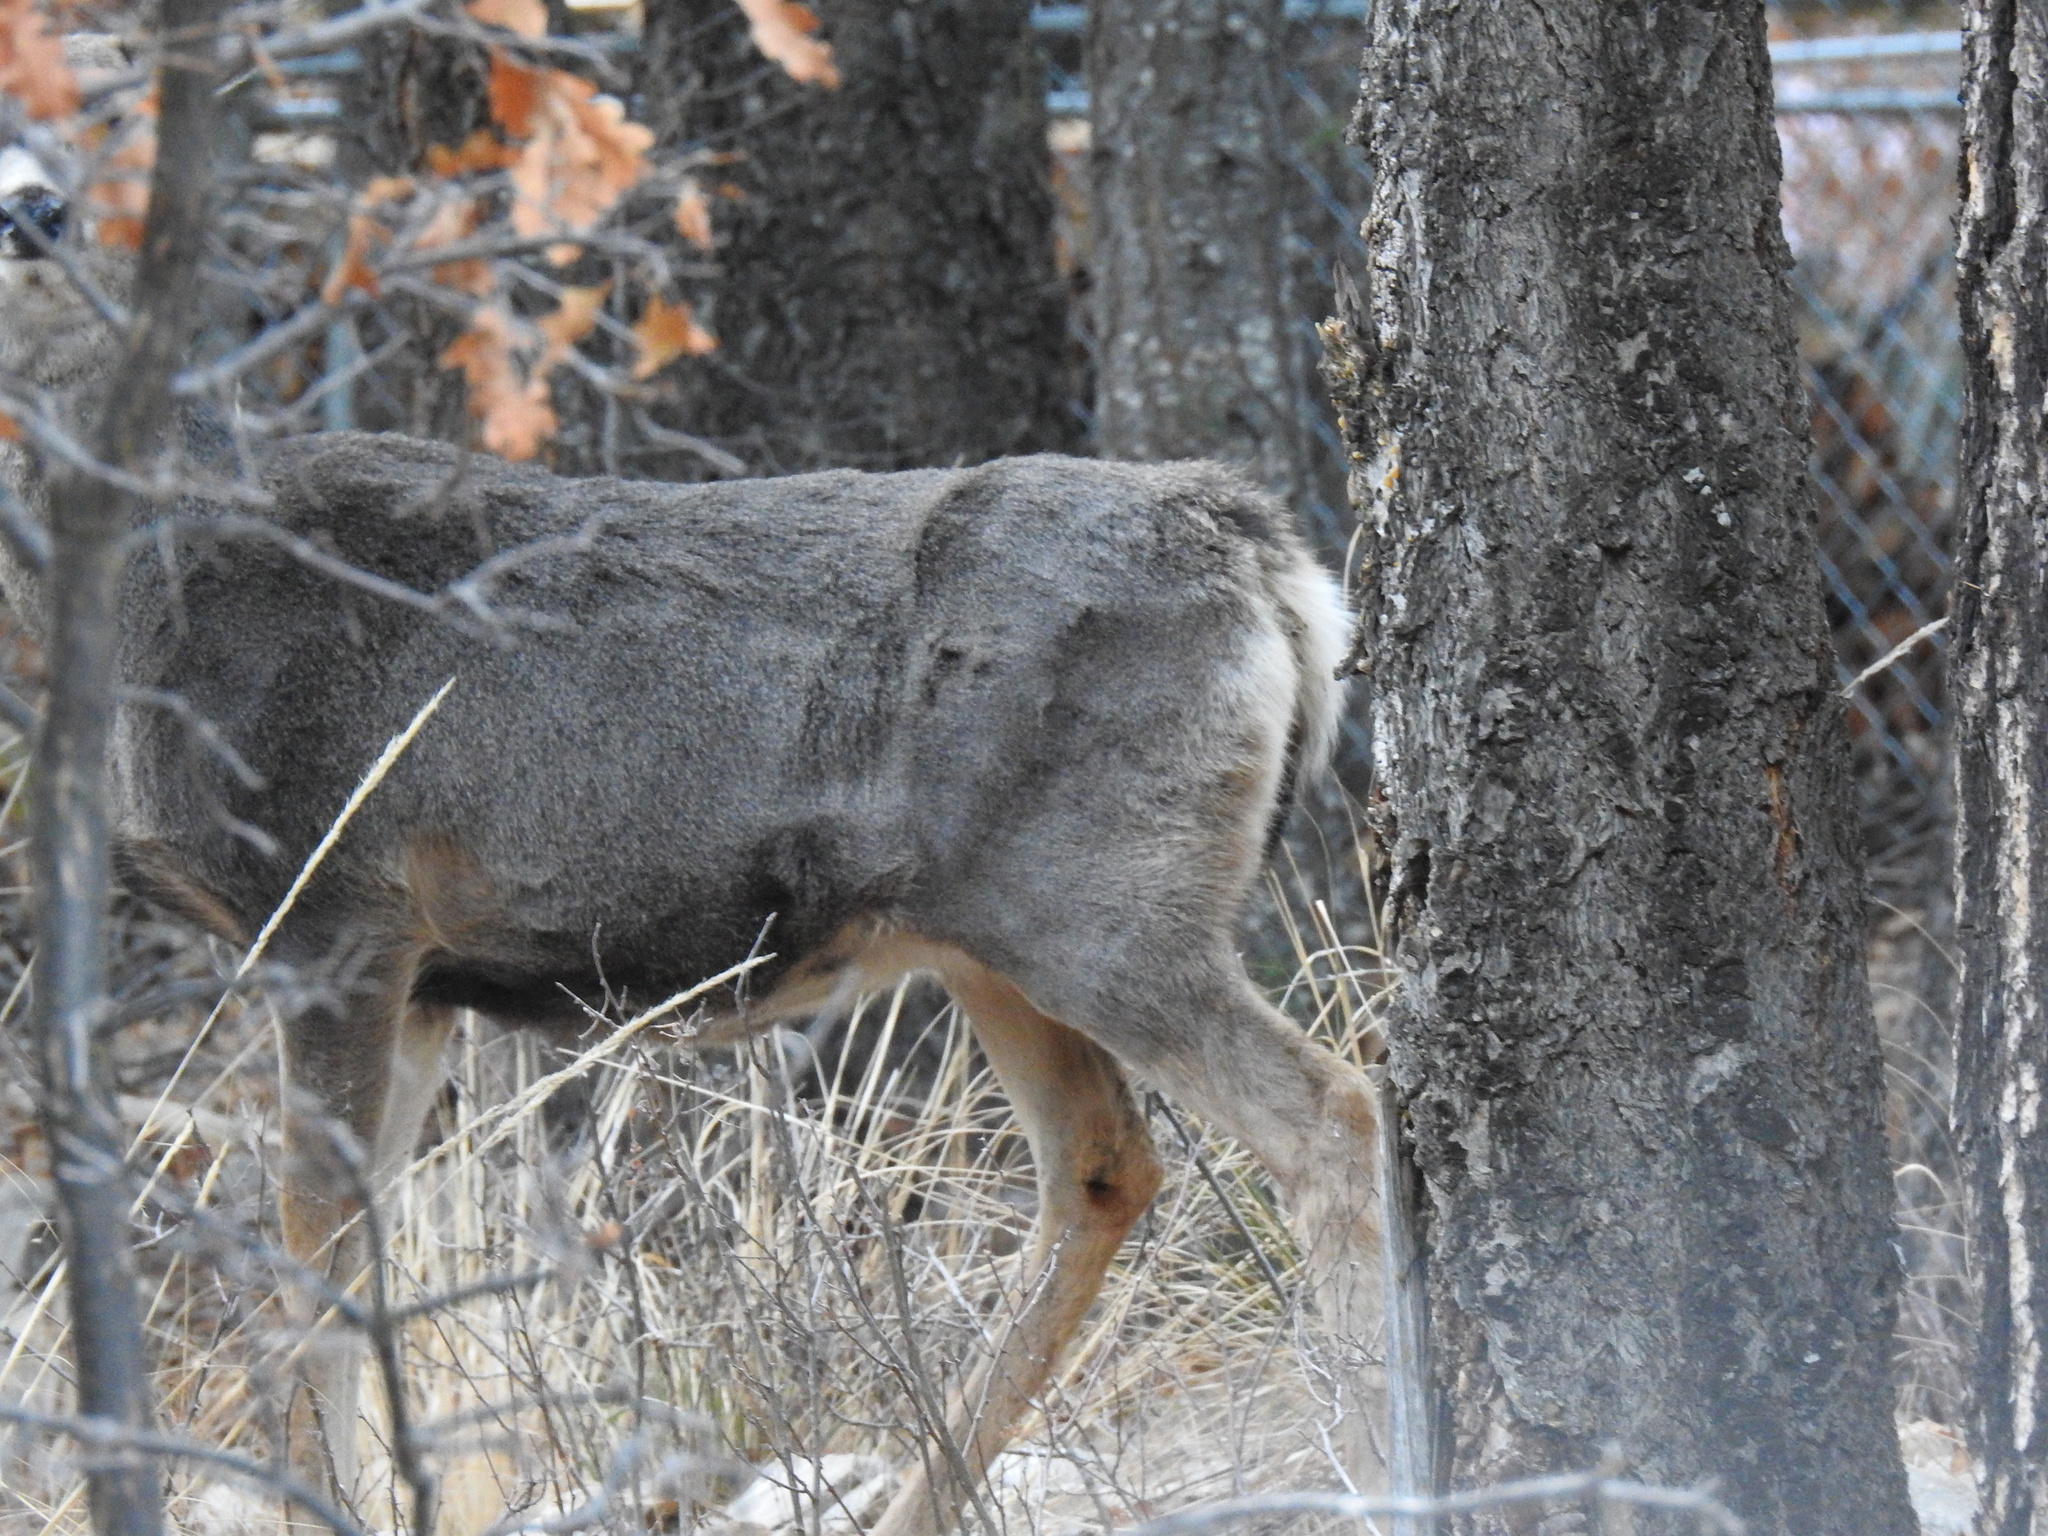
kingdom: Animalia
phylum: Chordata
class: Mammalia
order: Artiodactyla
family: Cervidae
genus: Odocoileus
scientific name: Odocoileus hemionus
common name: Mule deer
